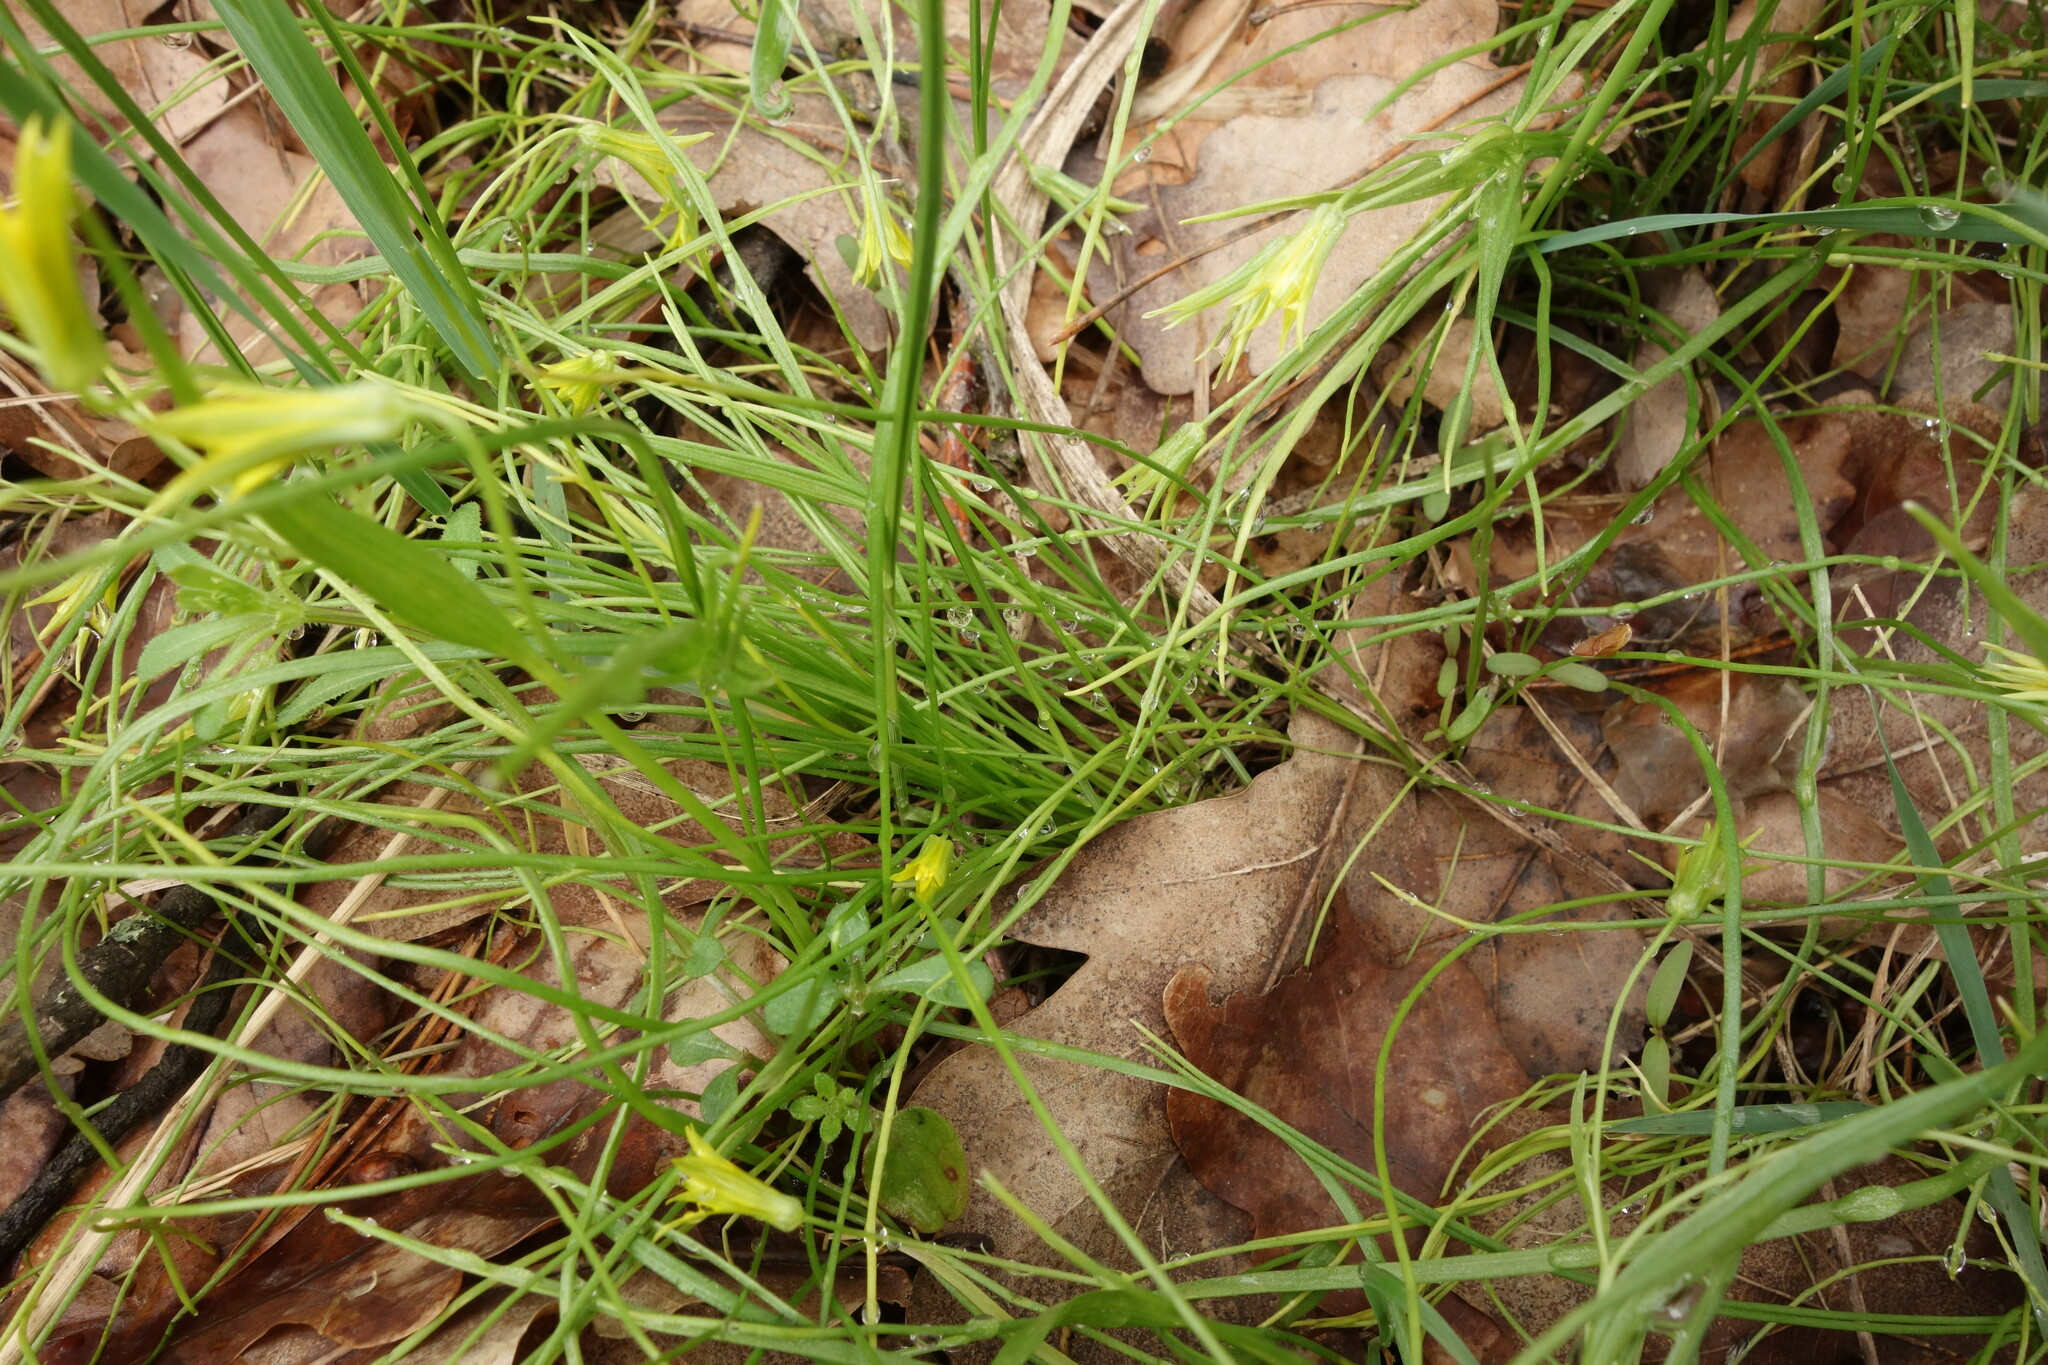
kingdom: Plantae
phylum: Tracheophyta
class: Liliopsida
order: Liliales
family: Liliaceae
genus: Gagea
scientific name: Gagea minima
